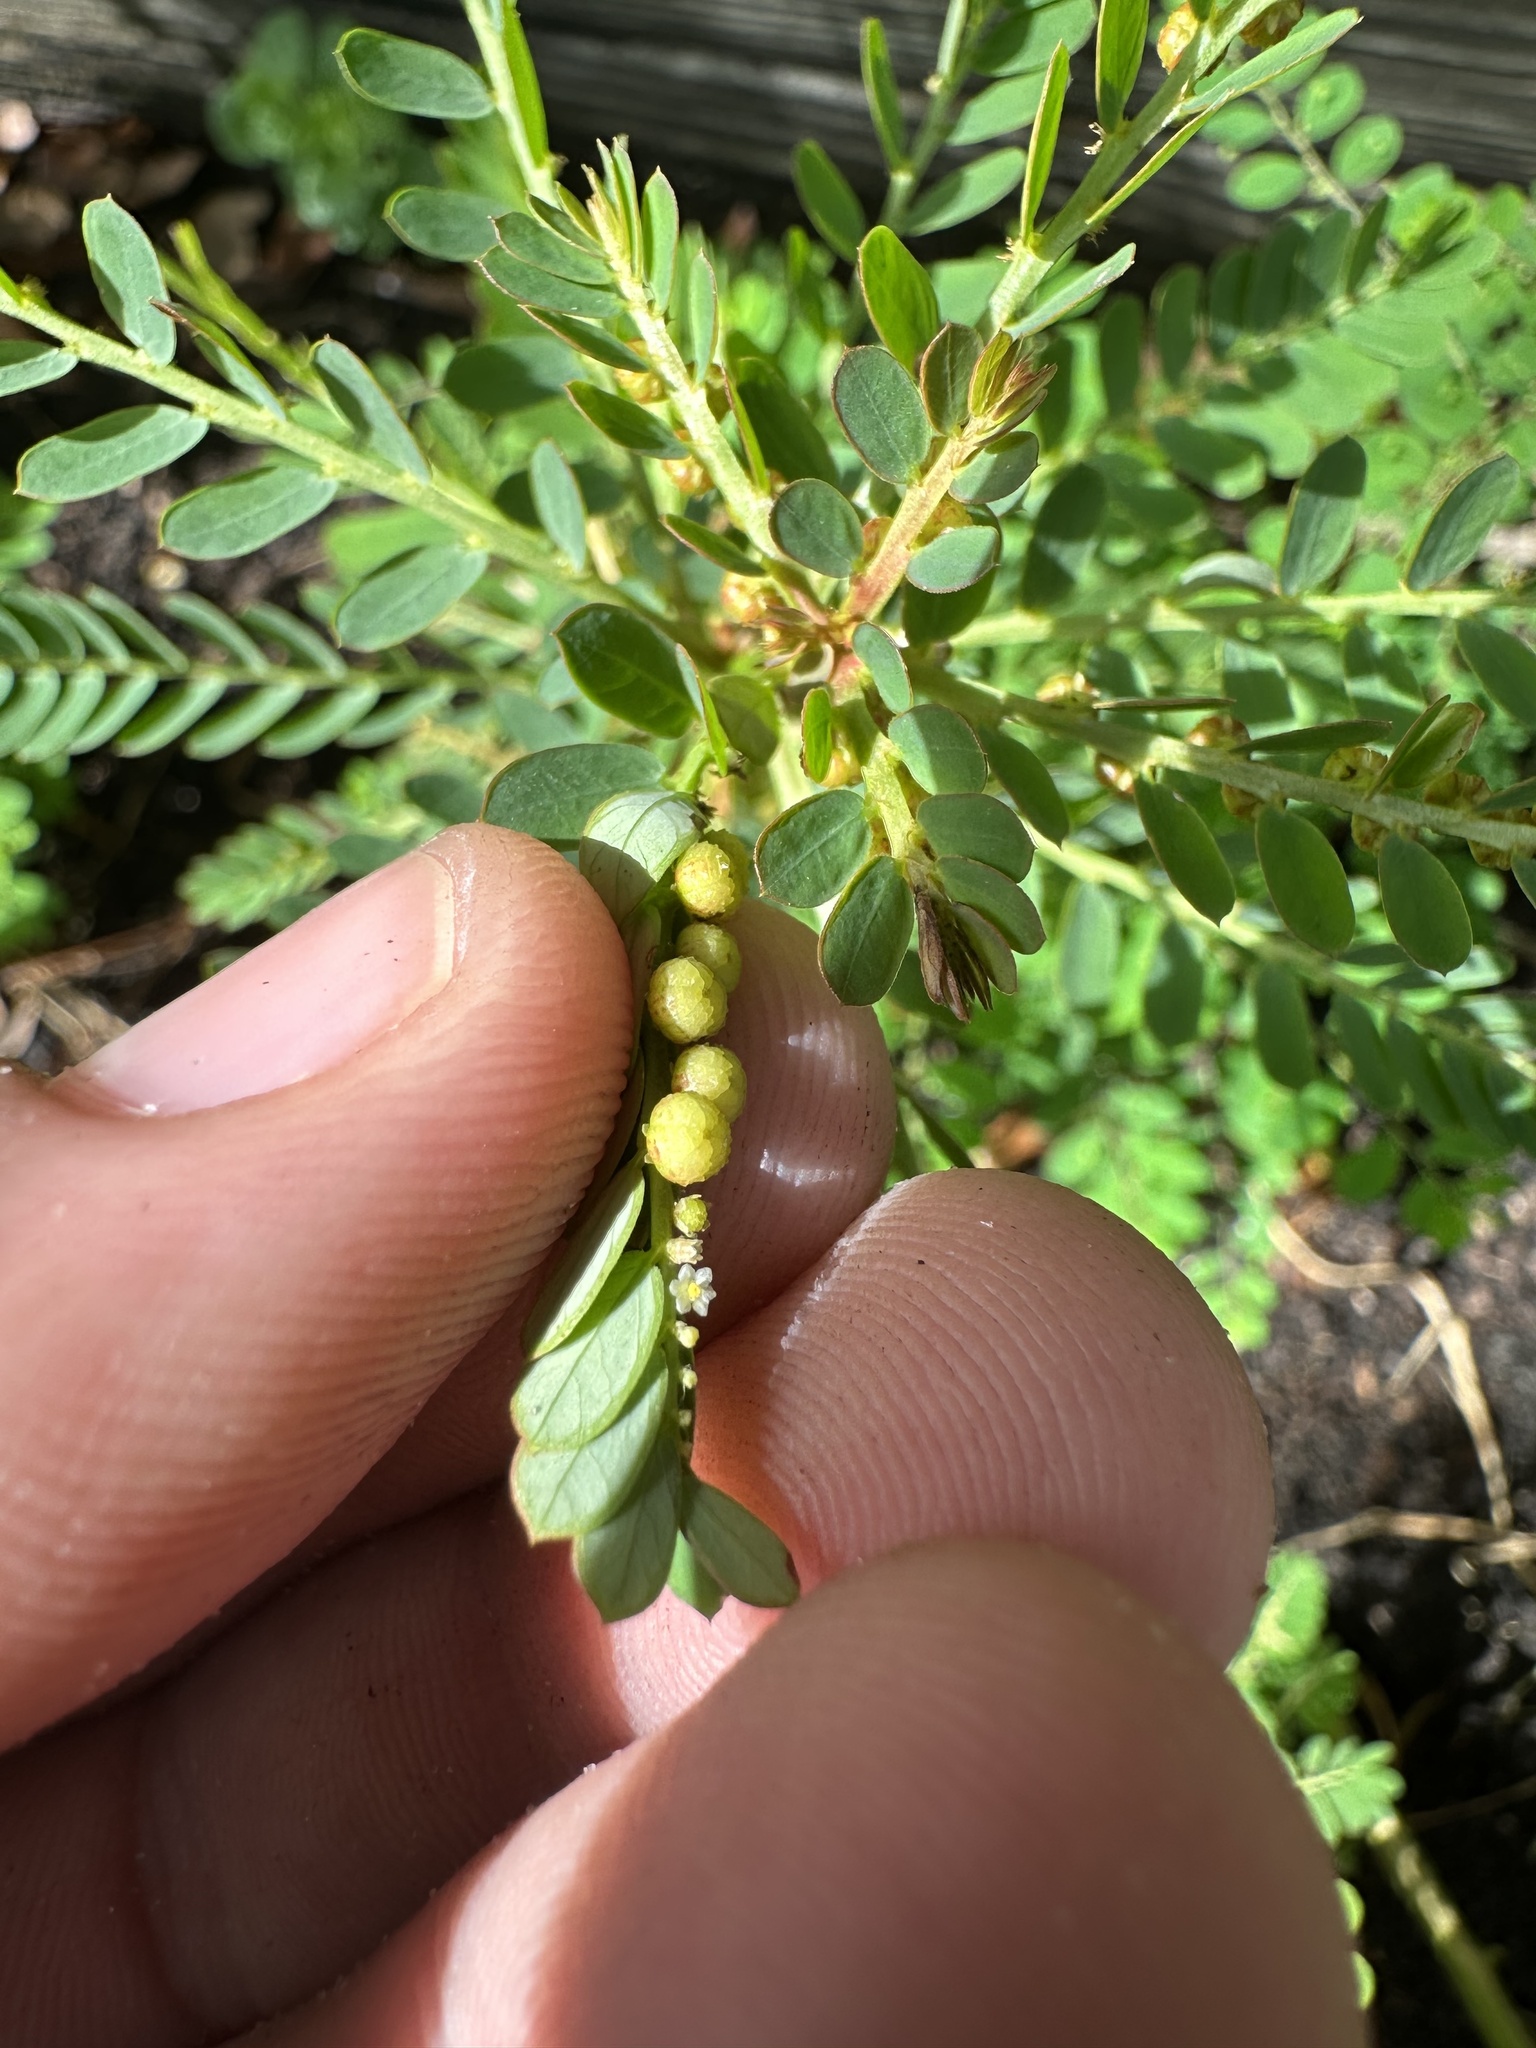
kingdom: Plantae
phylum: Tracheophyta
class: Magnoliopsida
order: Malpighiales
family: Phyllanthaceae
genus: Phyllanthus
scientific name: Phyllanthus urinaria
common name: Chamber bitter
